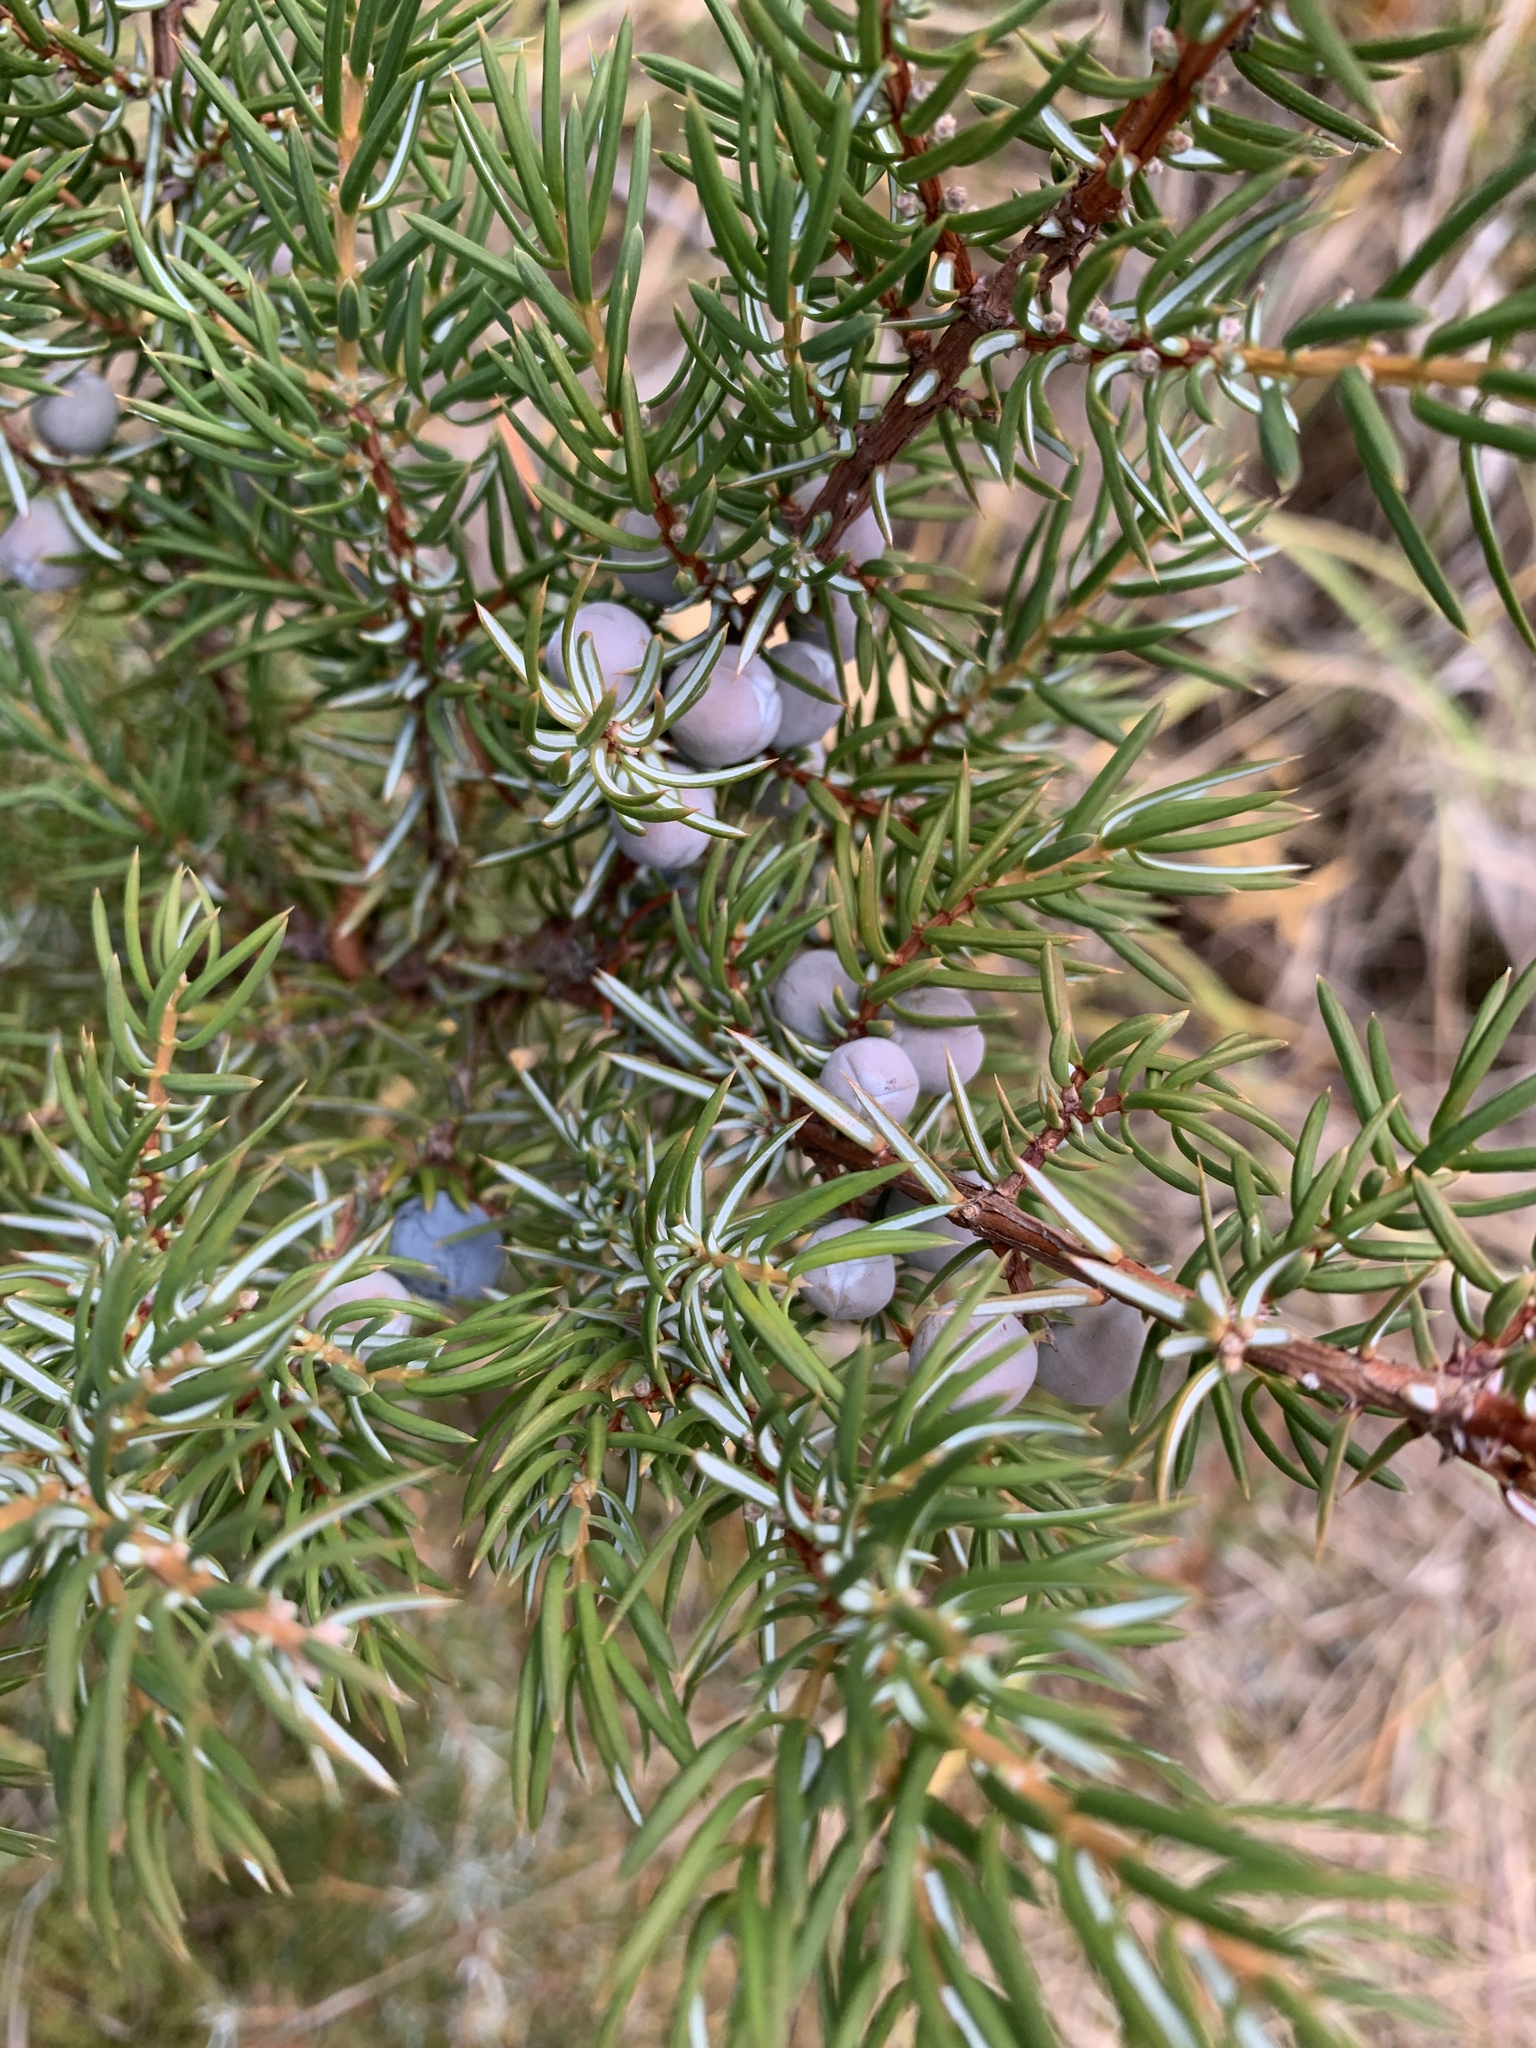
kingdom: Plantae
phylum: Tracheophyta
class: Pinopsida
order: Pinales
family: Cupressaceae
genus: Juniperus
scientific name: Juniperus communis
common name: Common juniper
